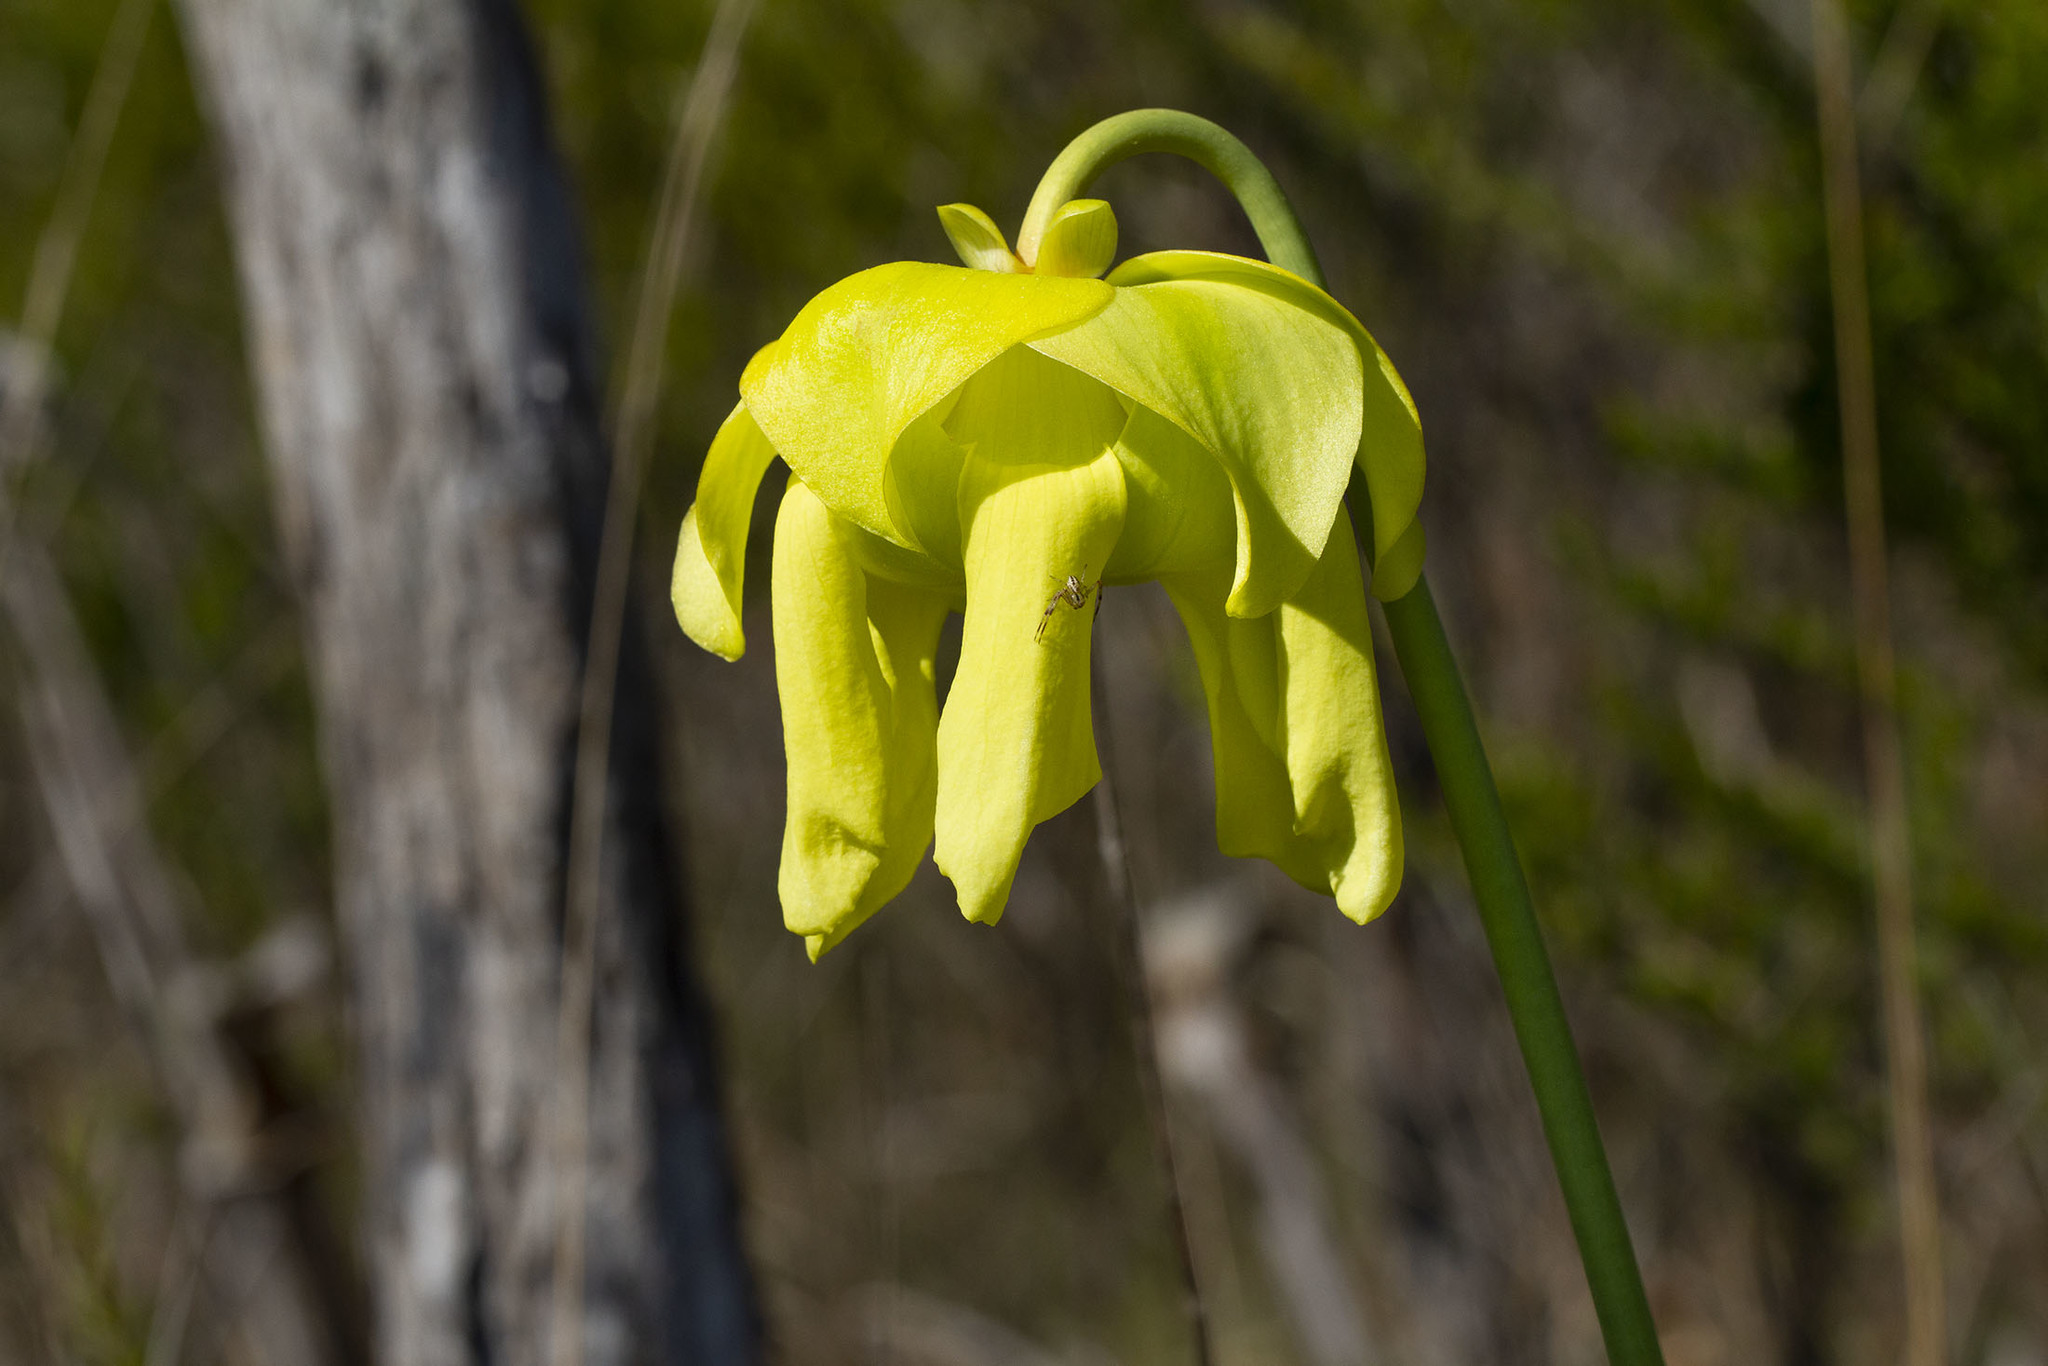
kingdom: Plantae
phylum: Tracheophyta
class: Magnoliopsida
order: Ericales
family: Sarraceniaceae
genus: Sarracenia
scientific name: Sarracenia flava
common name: Trumpets
